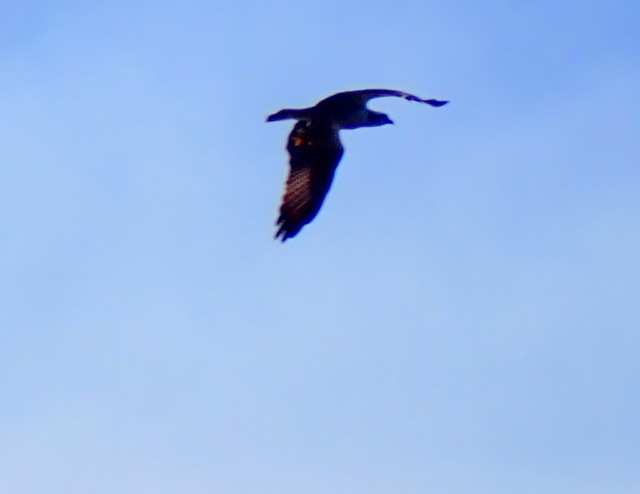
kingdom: Animalia
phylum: Chordata
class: Aves
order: Accipitriformes
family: Pandionidae
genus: Pandion
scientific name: Pandion haliaetus
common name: Osprey
